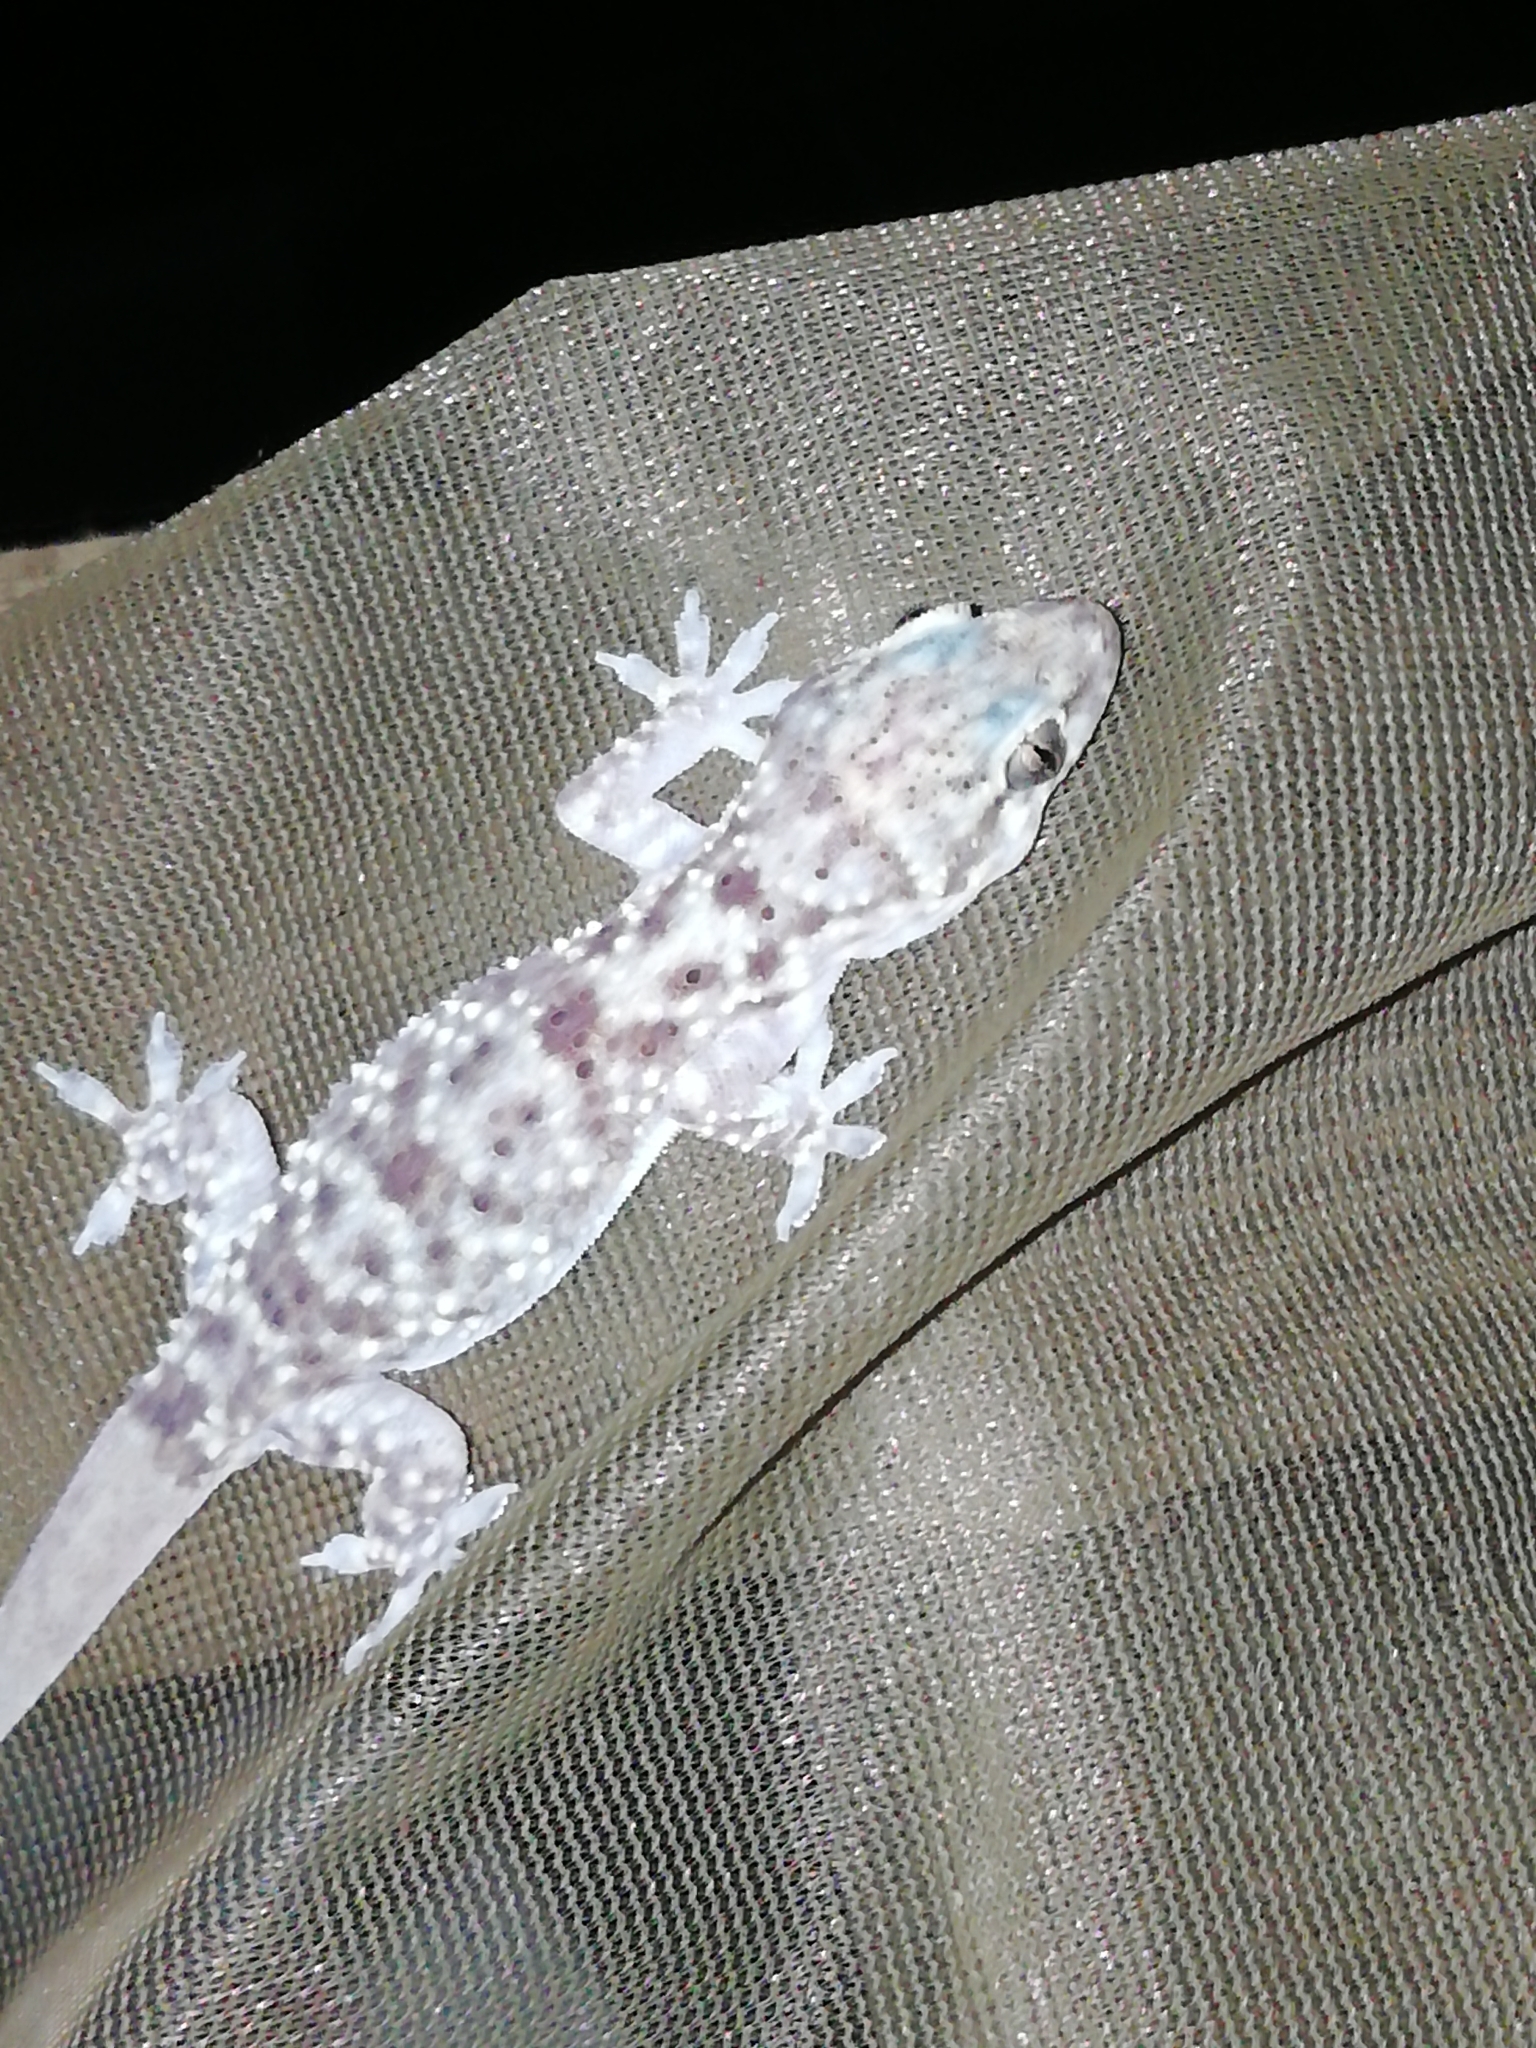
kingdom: Animalia
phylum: Chordata
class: Squamata
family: Gekkonidae
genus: Hemidactylus
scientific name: Hemidactylus turcicus
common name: Turkish gecko
